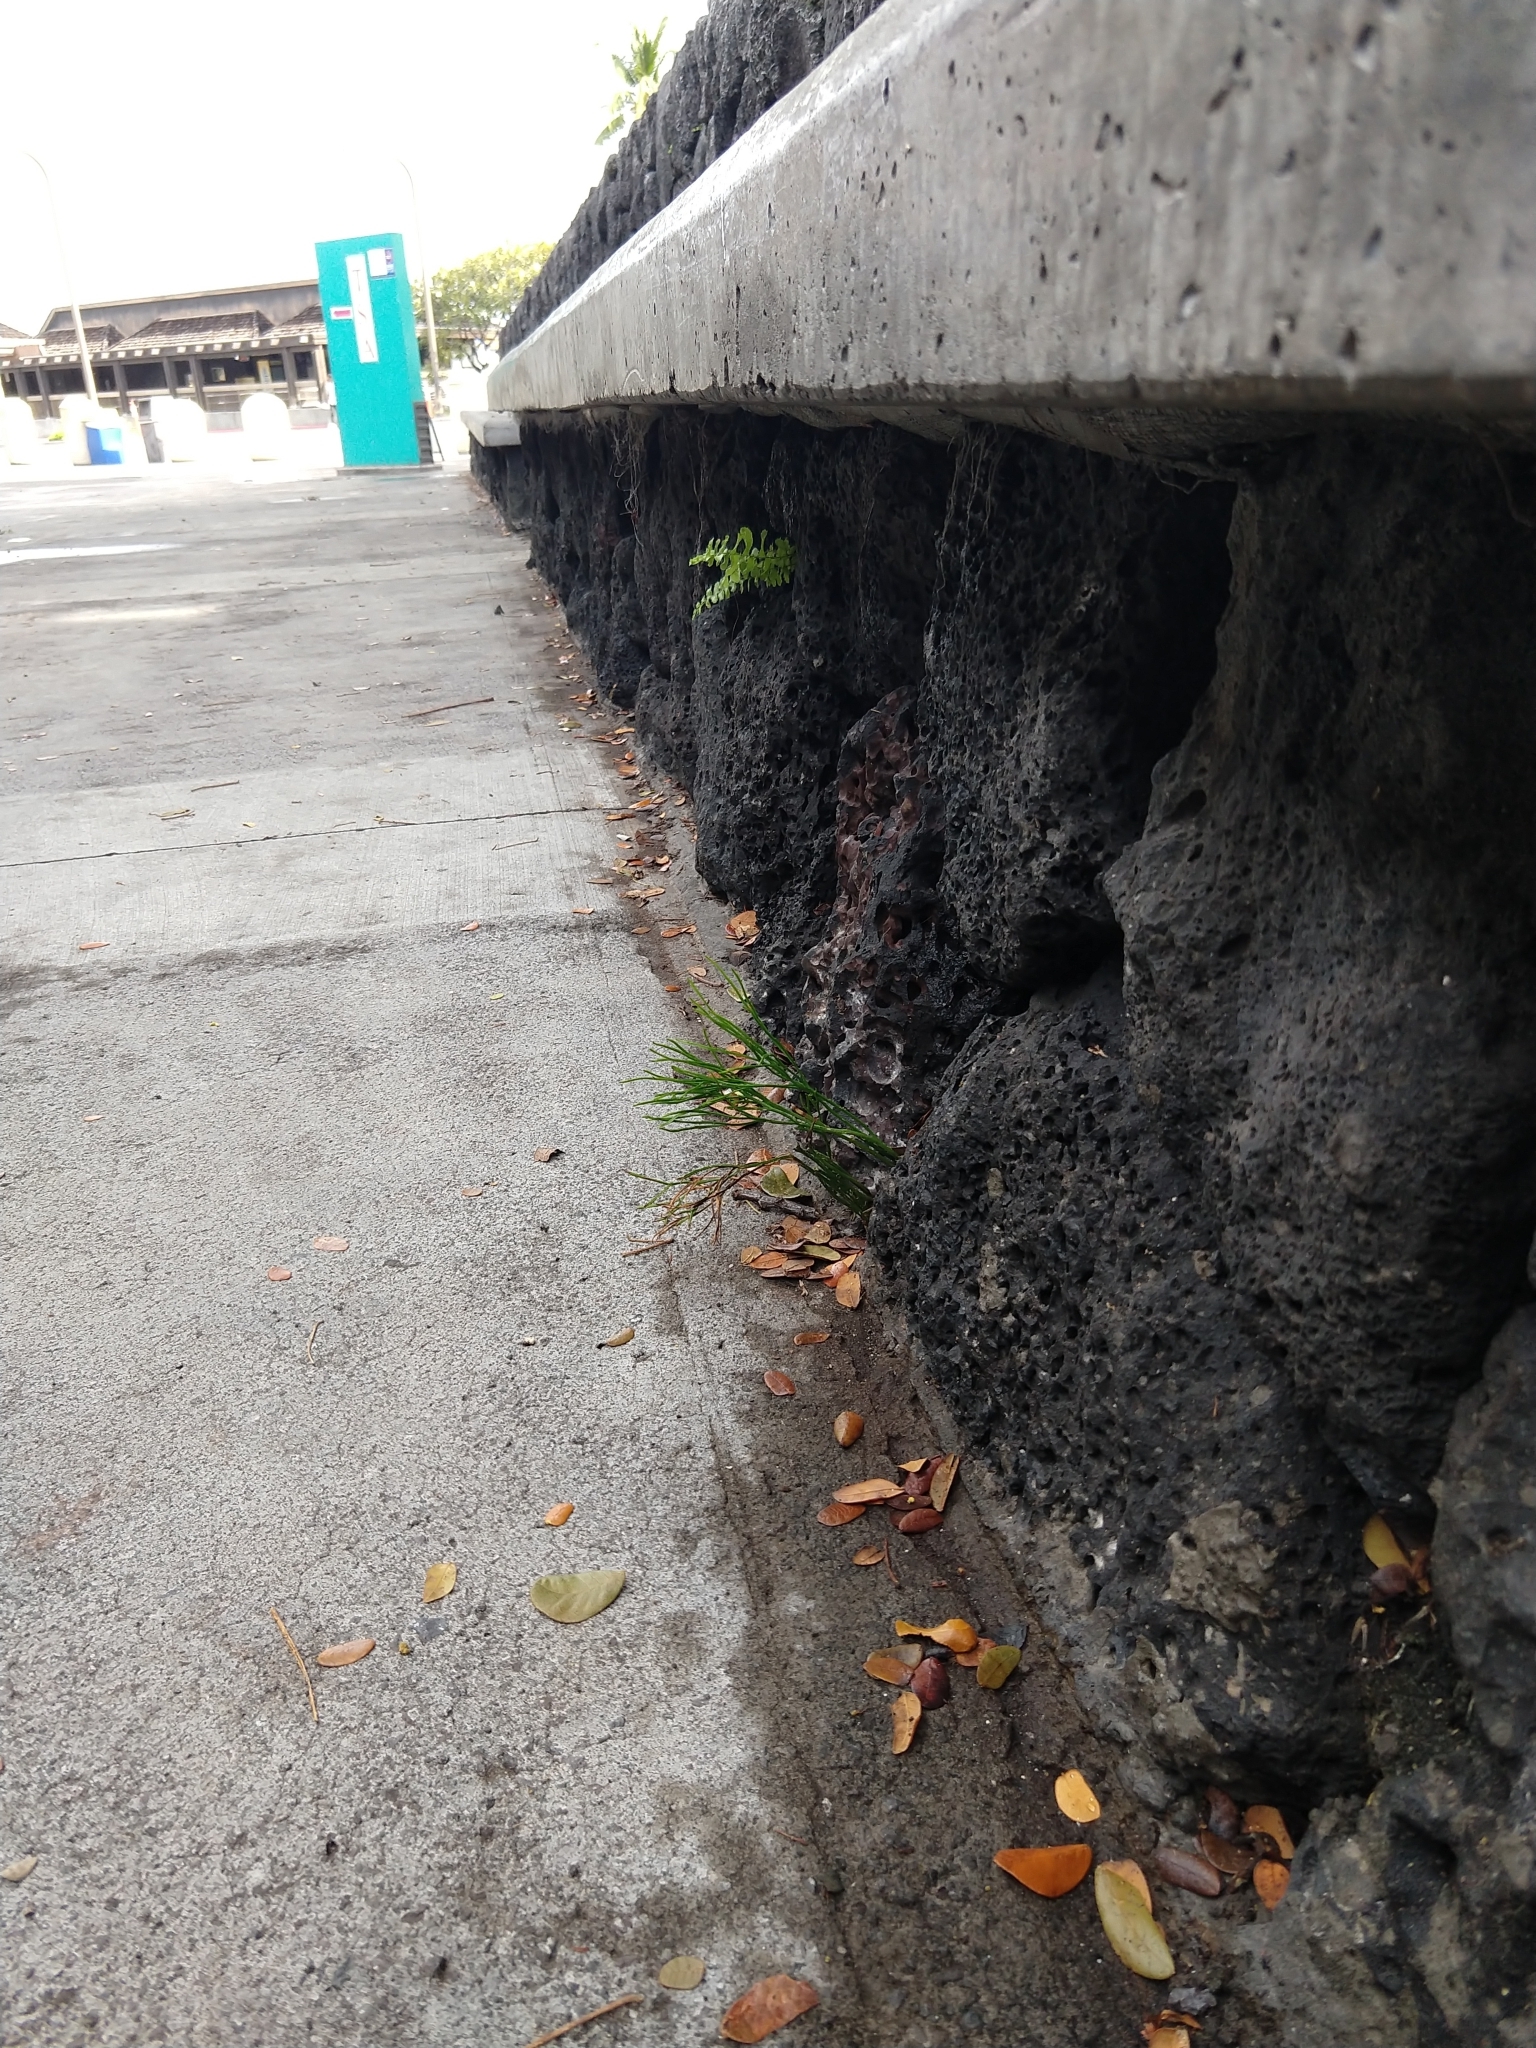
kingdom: Plantae
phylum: Tracheophyta
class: Polypodiopsida
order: Psilotales
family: Psilotaceae
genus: Psilotum
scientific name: Psilotum nudum
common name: Skeleton fork fern
